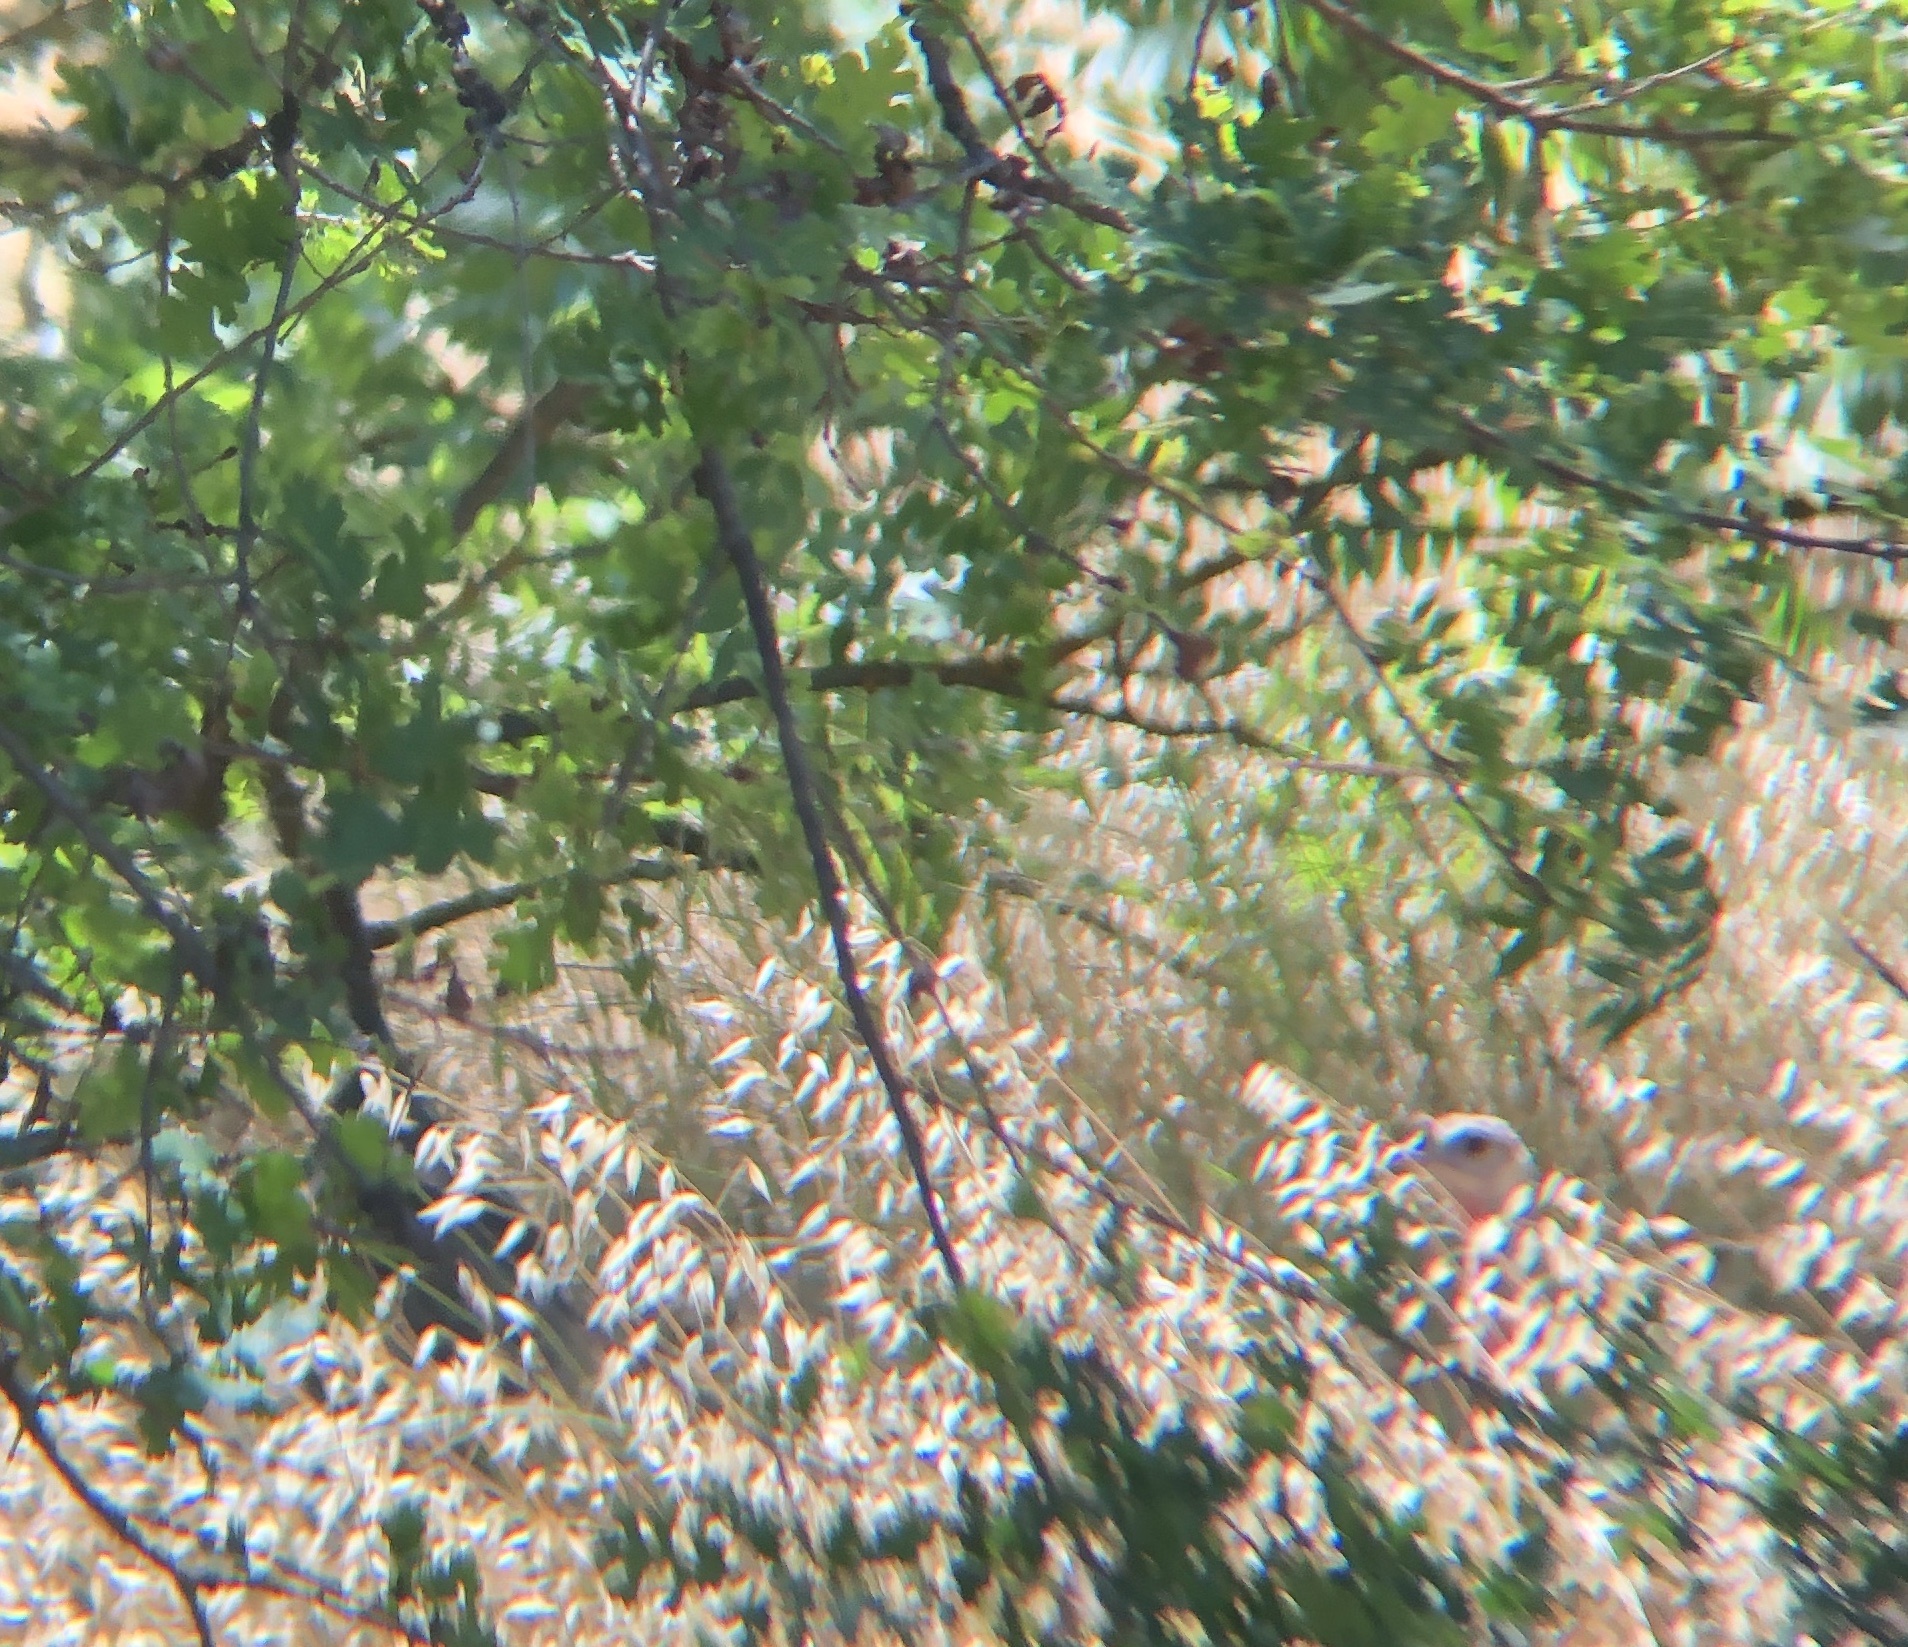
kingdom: Animalia
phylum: Chordata
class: Aves
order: Galliformes
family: Phasianidae
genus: Meleagris
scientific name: Meleagris gallopavo
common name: Wild turkey
